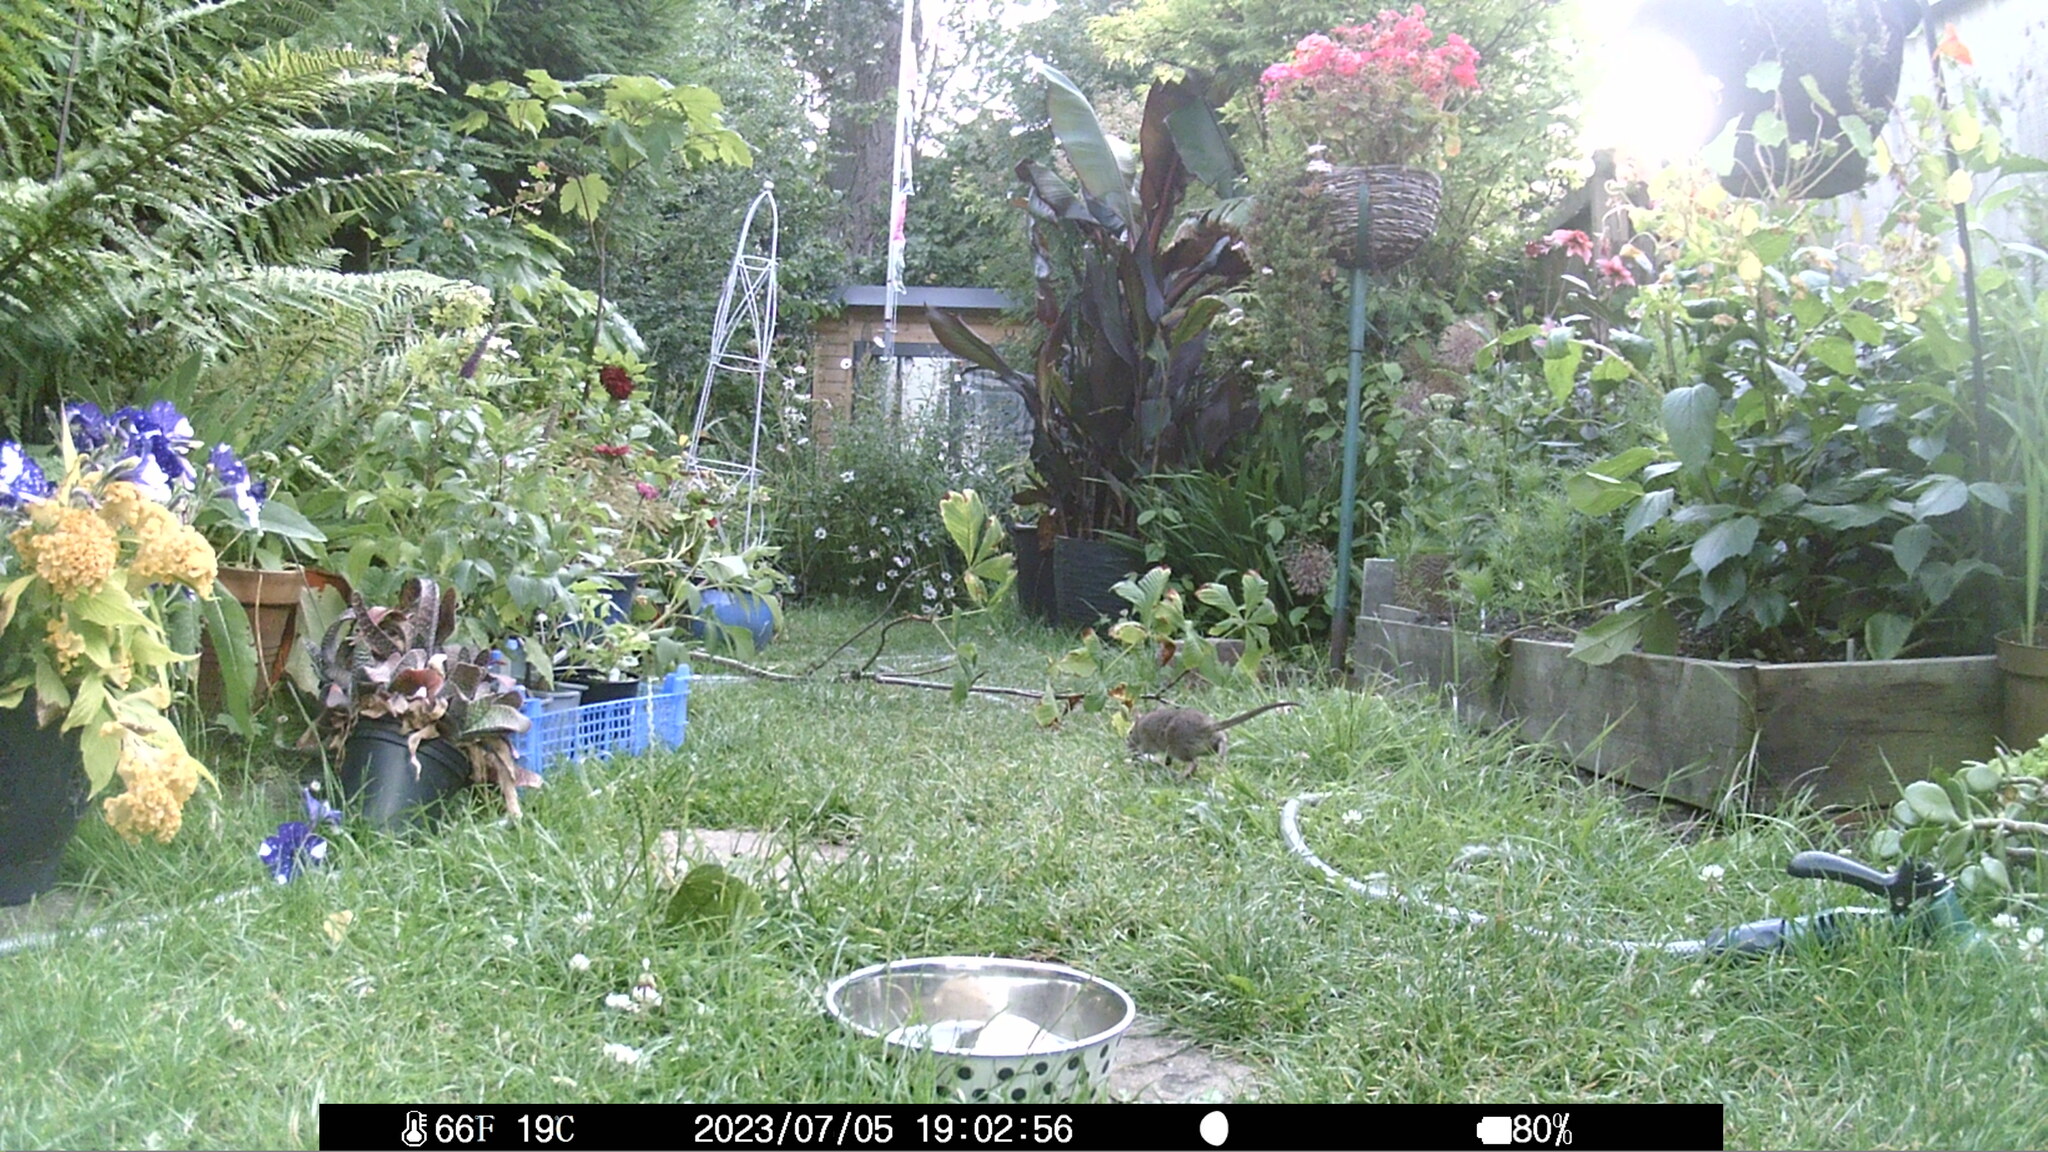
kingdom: Animalia
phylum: Chordata
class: Mammalia
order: Rodentia
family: Muridae
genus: Rattus
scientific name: Rattus norvegicus
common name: Brown rat
